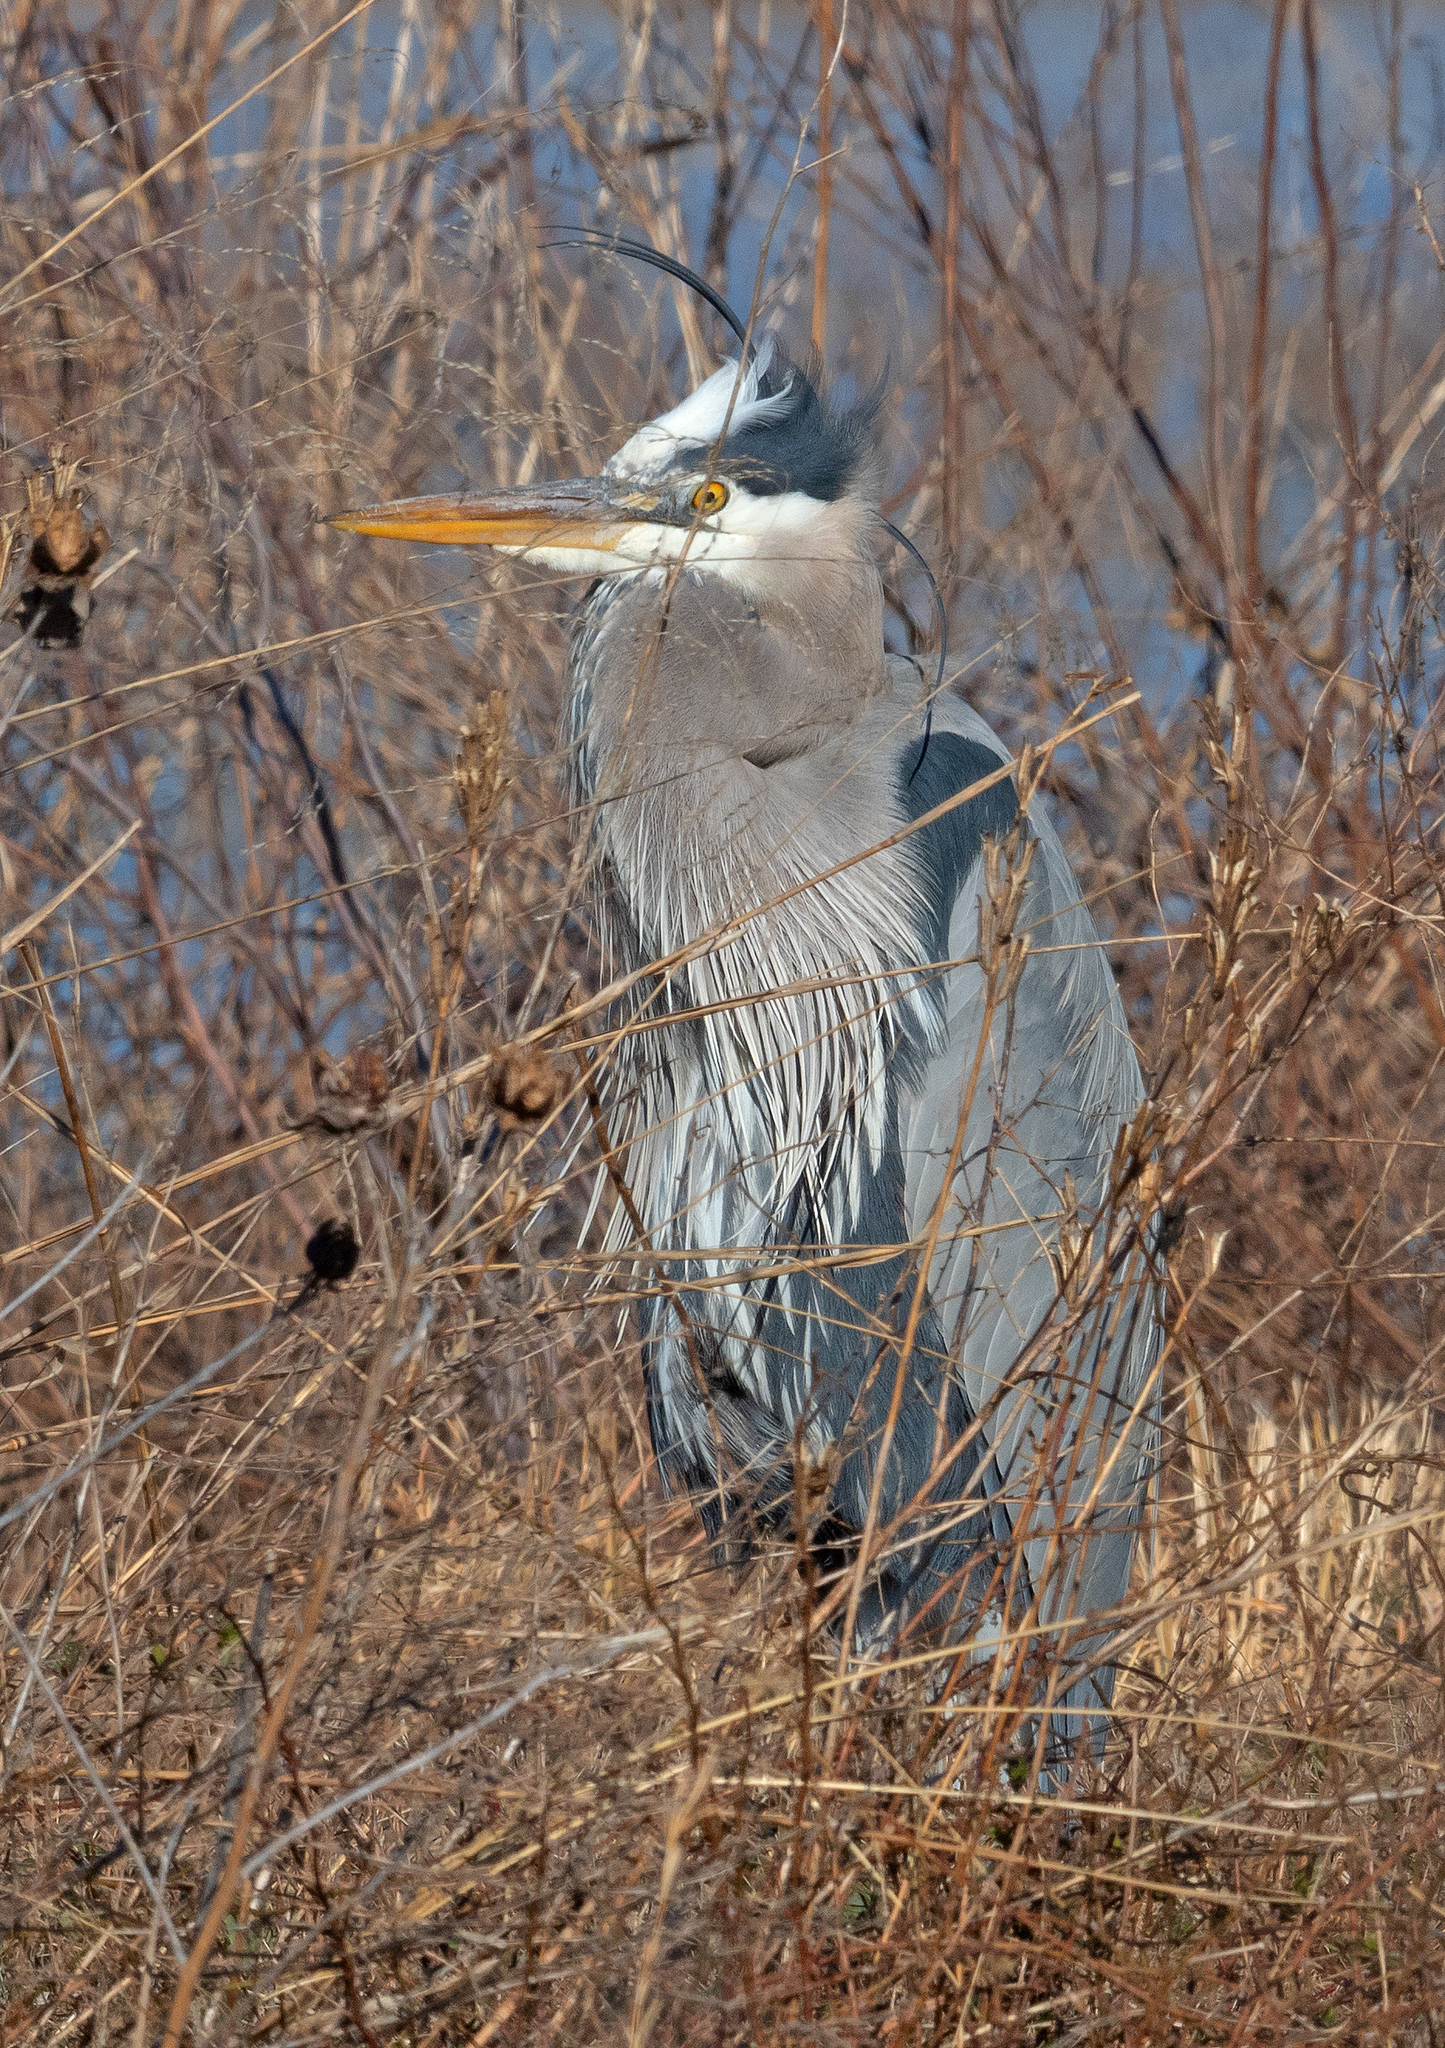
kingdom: Animalia
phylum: Chordata
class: Aves
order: Pelecaniformes
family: Ardeidae
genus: Ardea
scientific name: Ardea herodias
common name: Great blue heron
